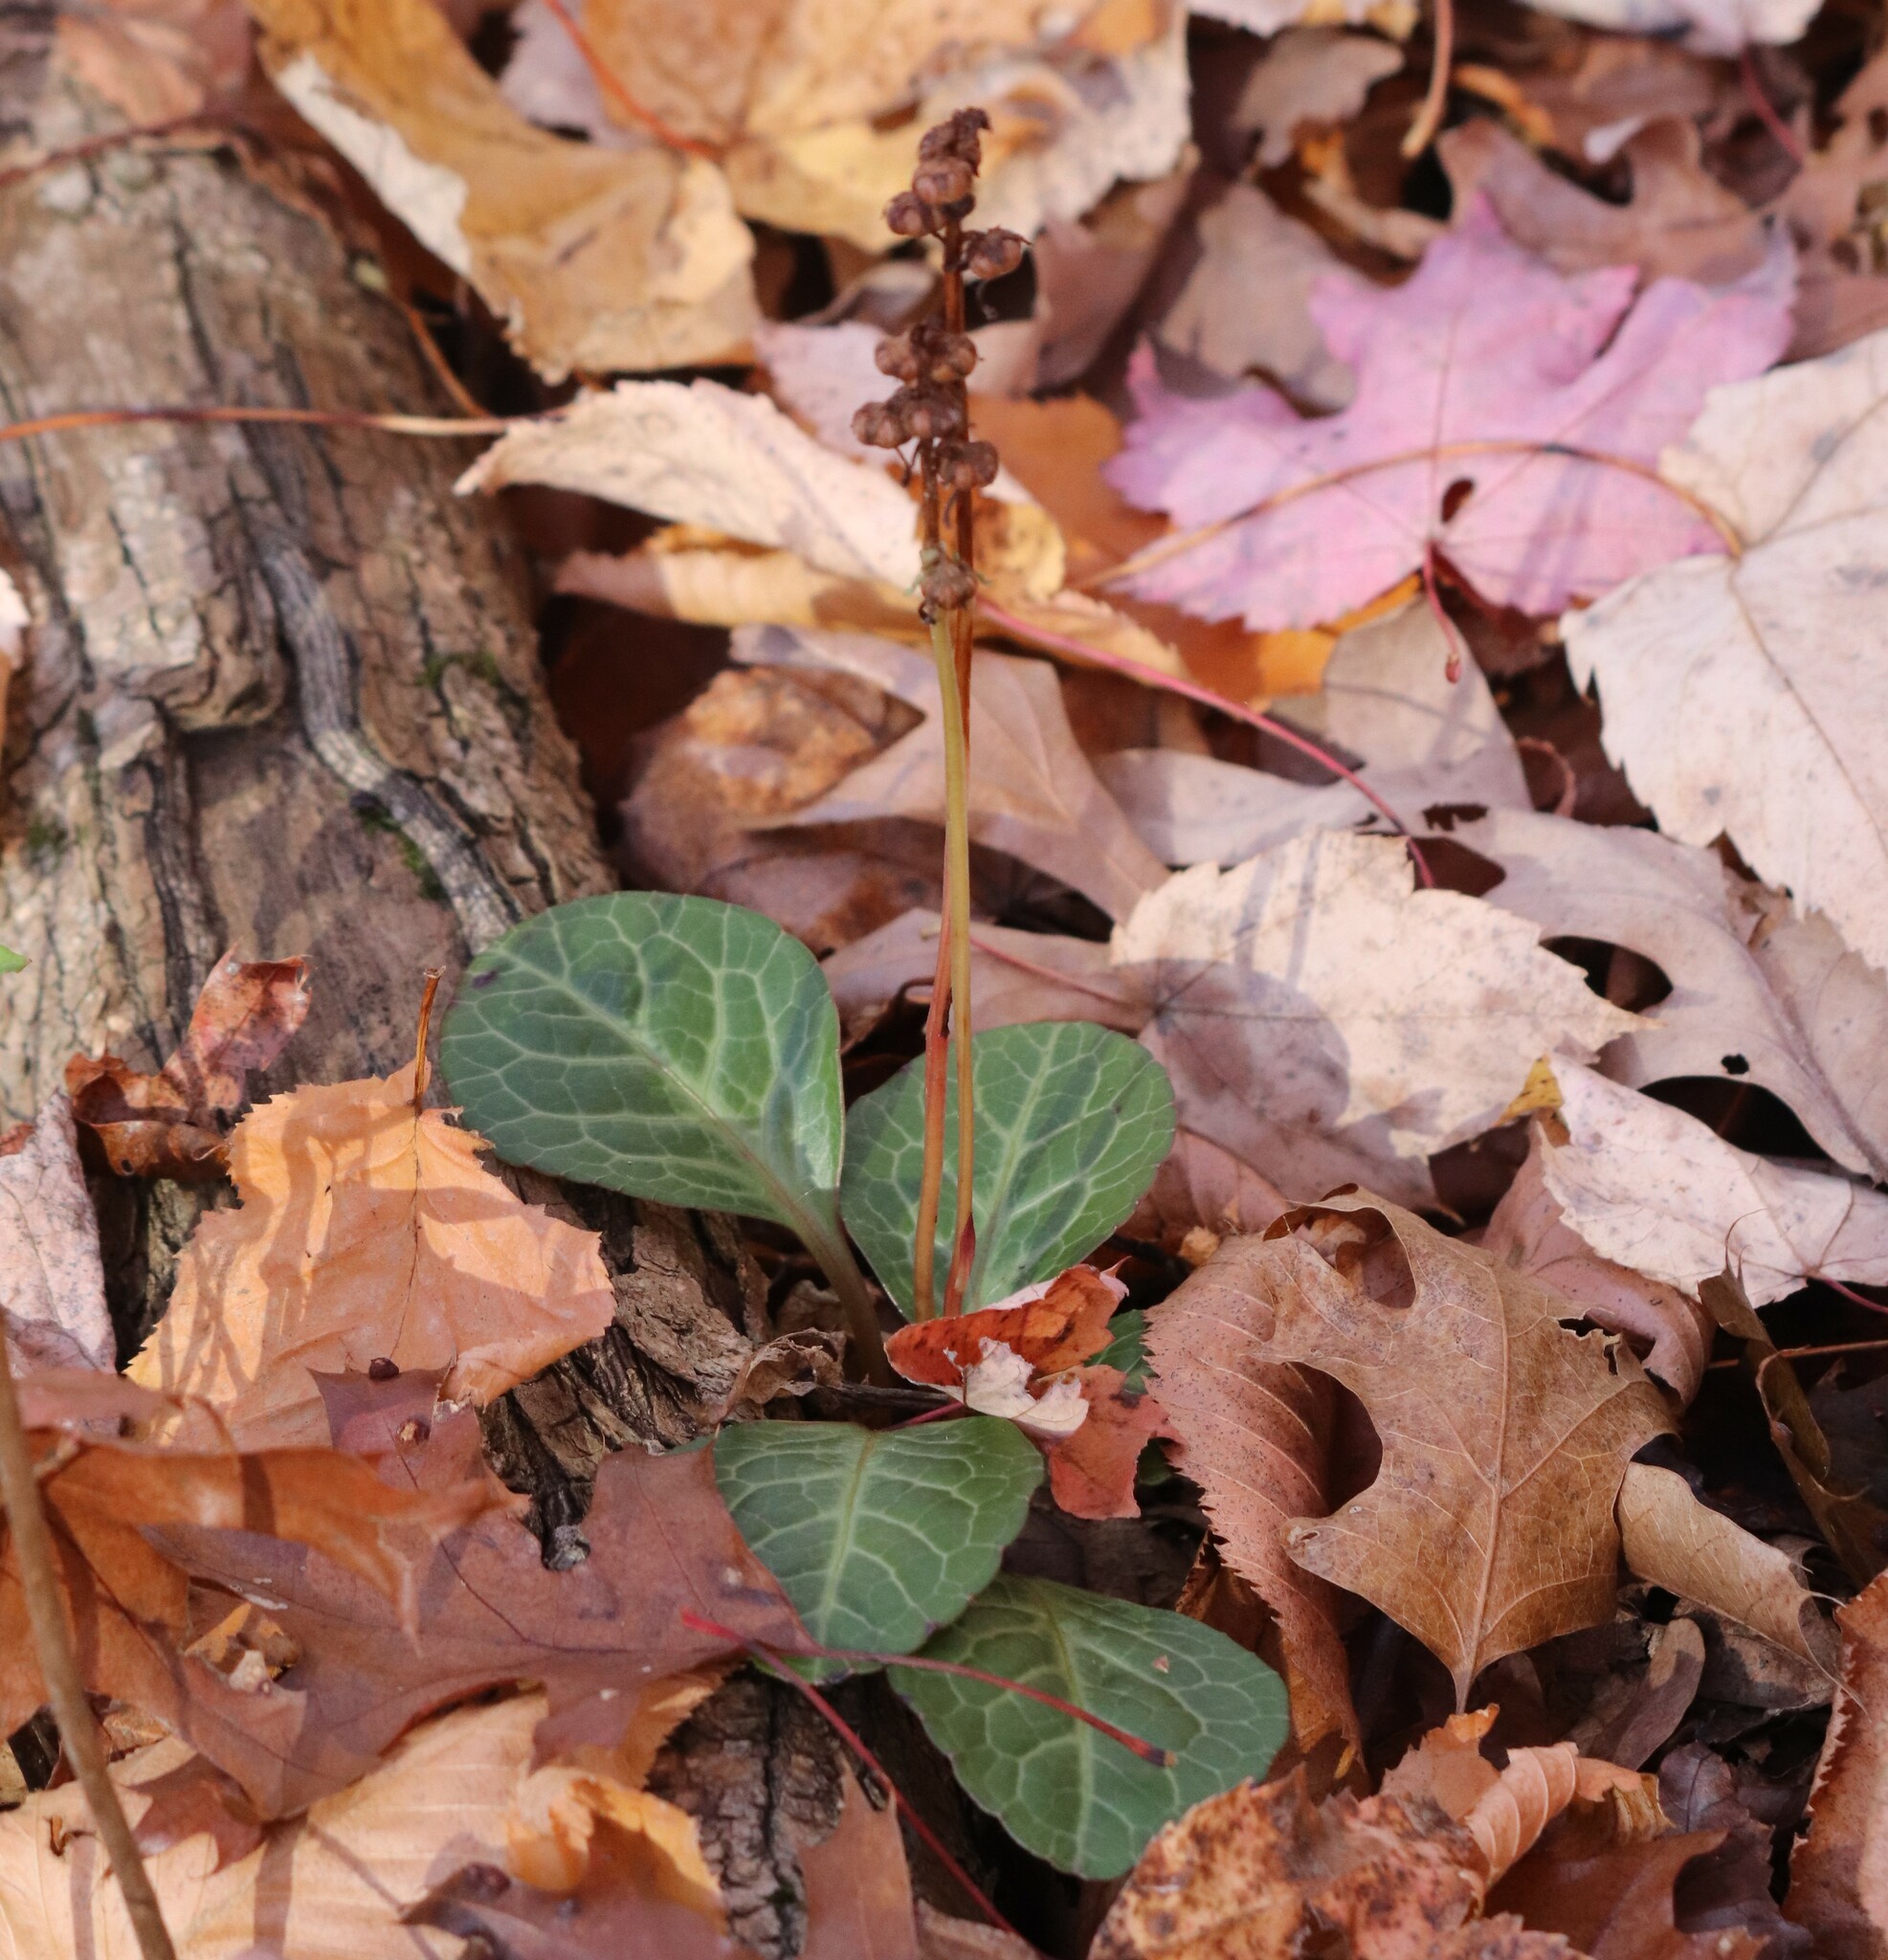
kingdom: Plantae
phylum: Tracheophyta
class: Magnoliopsida
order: Ericales
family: Ericaceae
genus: Pyrola
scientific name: Pyrola americana
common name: American wintergreen
